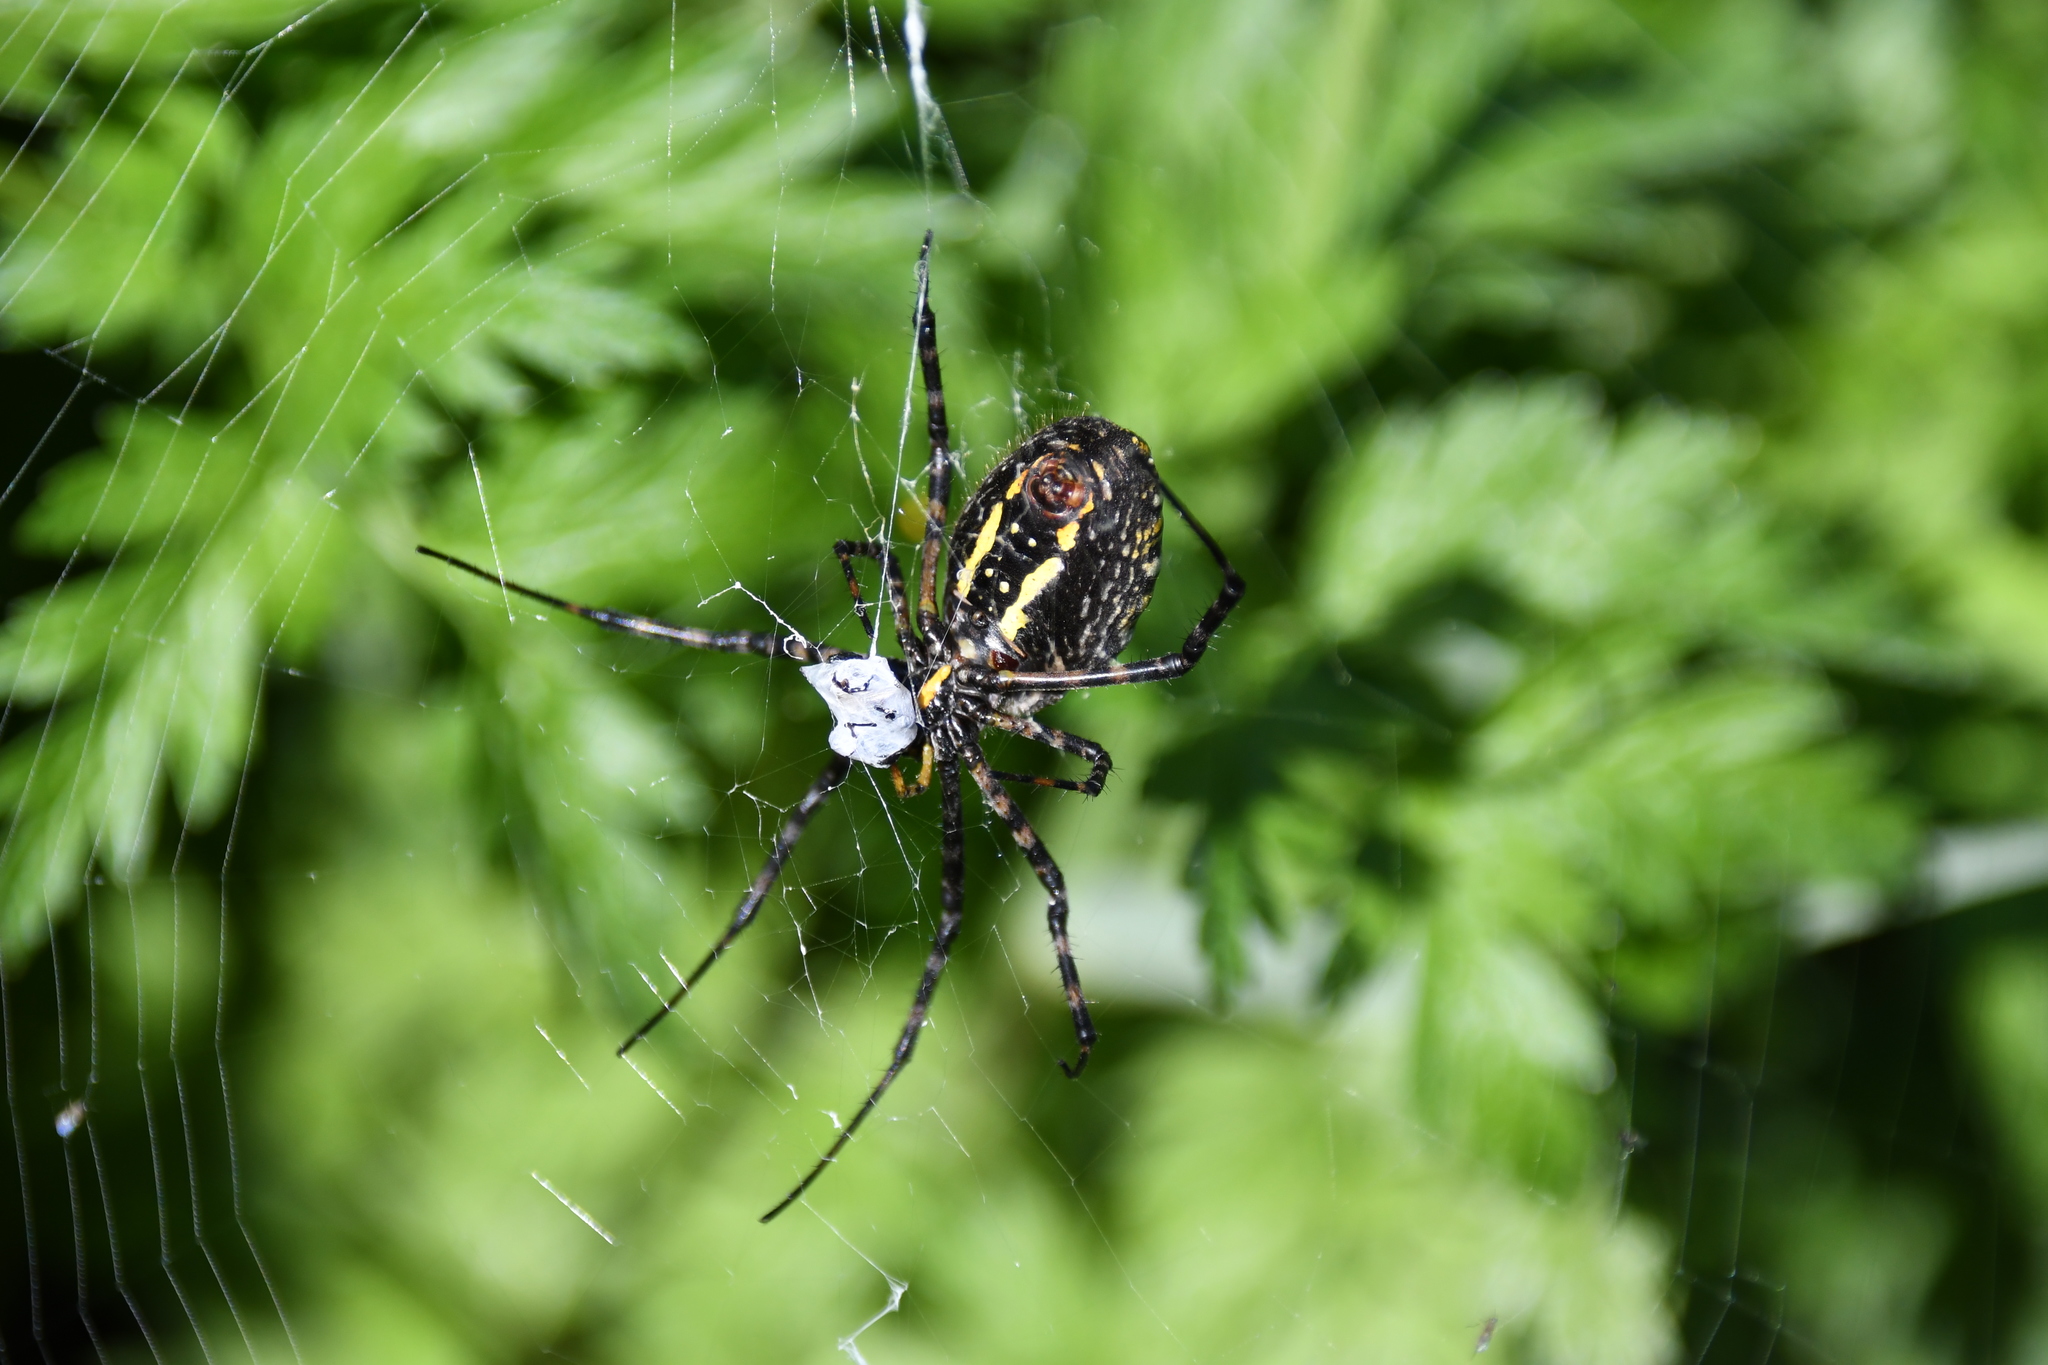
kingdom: Animalia
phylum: Arthropoda
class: Arachnida
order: Araneae
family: Araneidae
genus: Argiope
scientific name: Argiope trifasciata
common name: Banded garden spider
